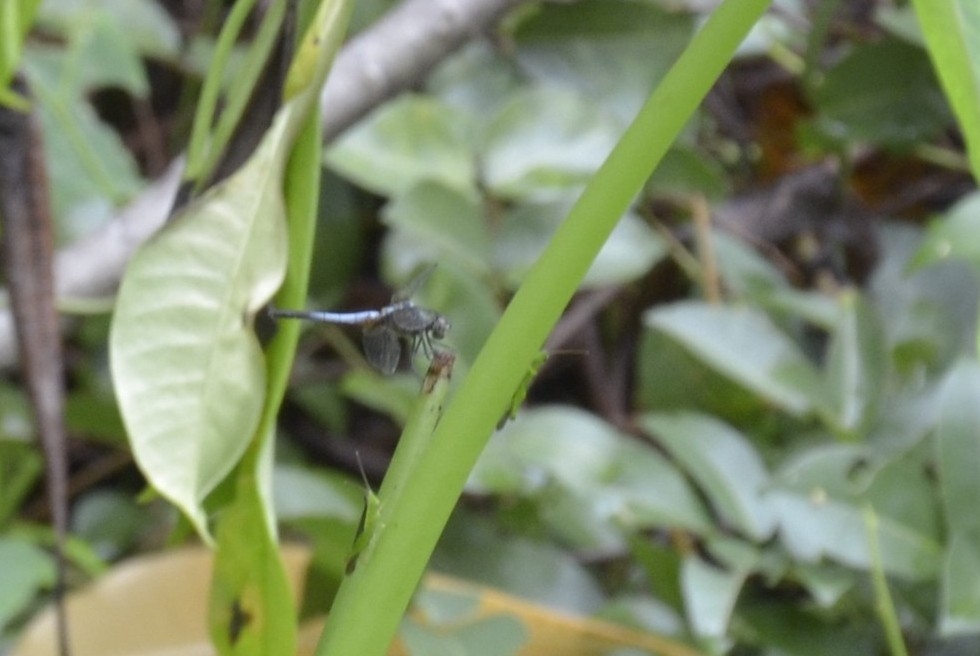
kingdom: Animalia
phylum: Arthropoda
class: Insecta
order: Odonata
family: Libellulidae
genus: Brachydiplax
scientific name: Brachydiplax chalybea
